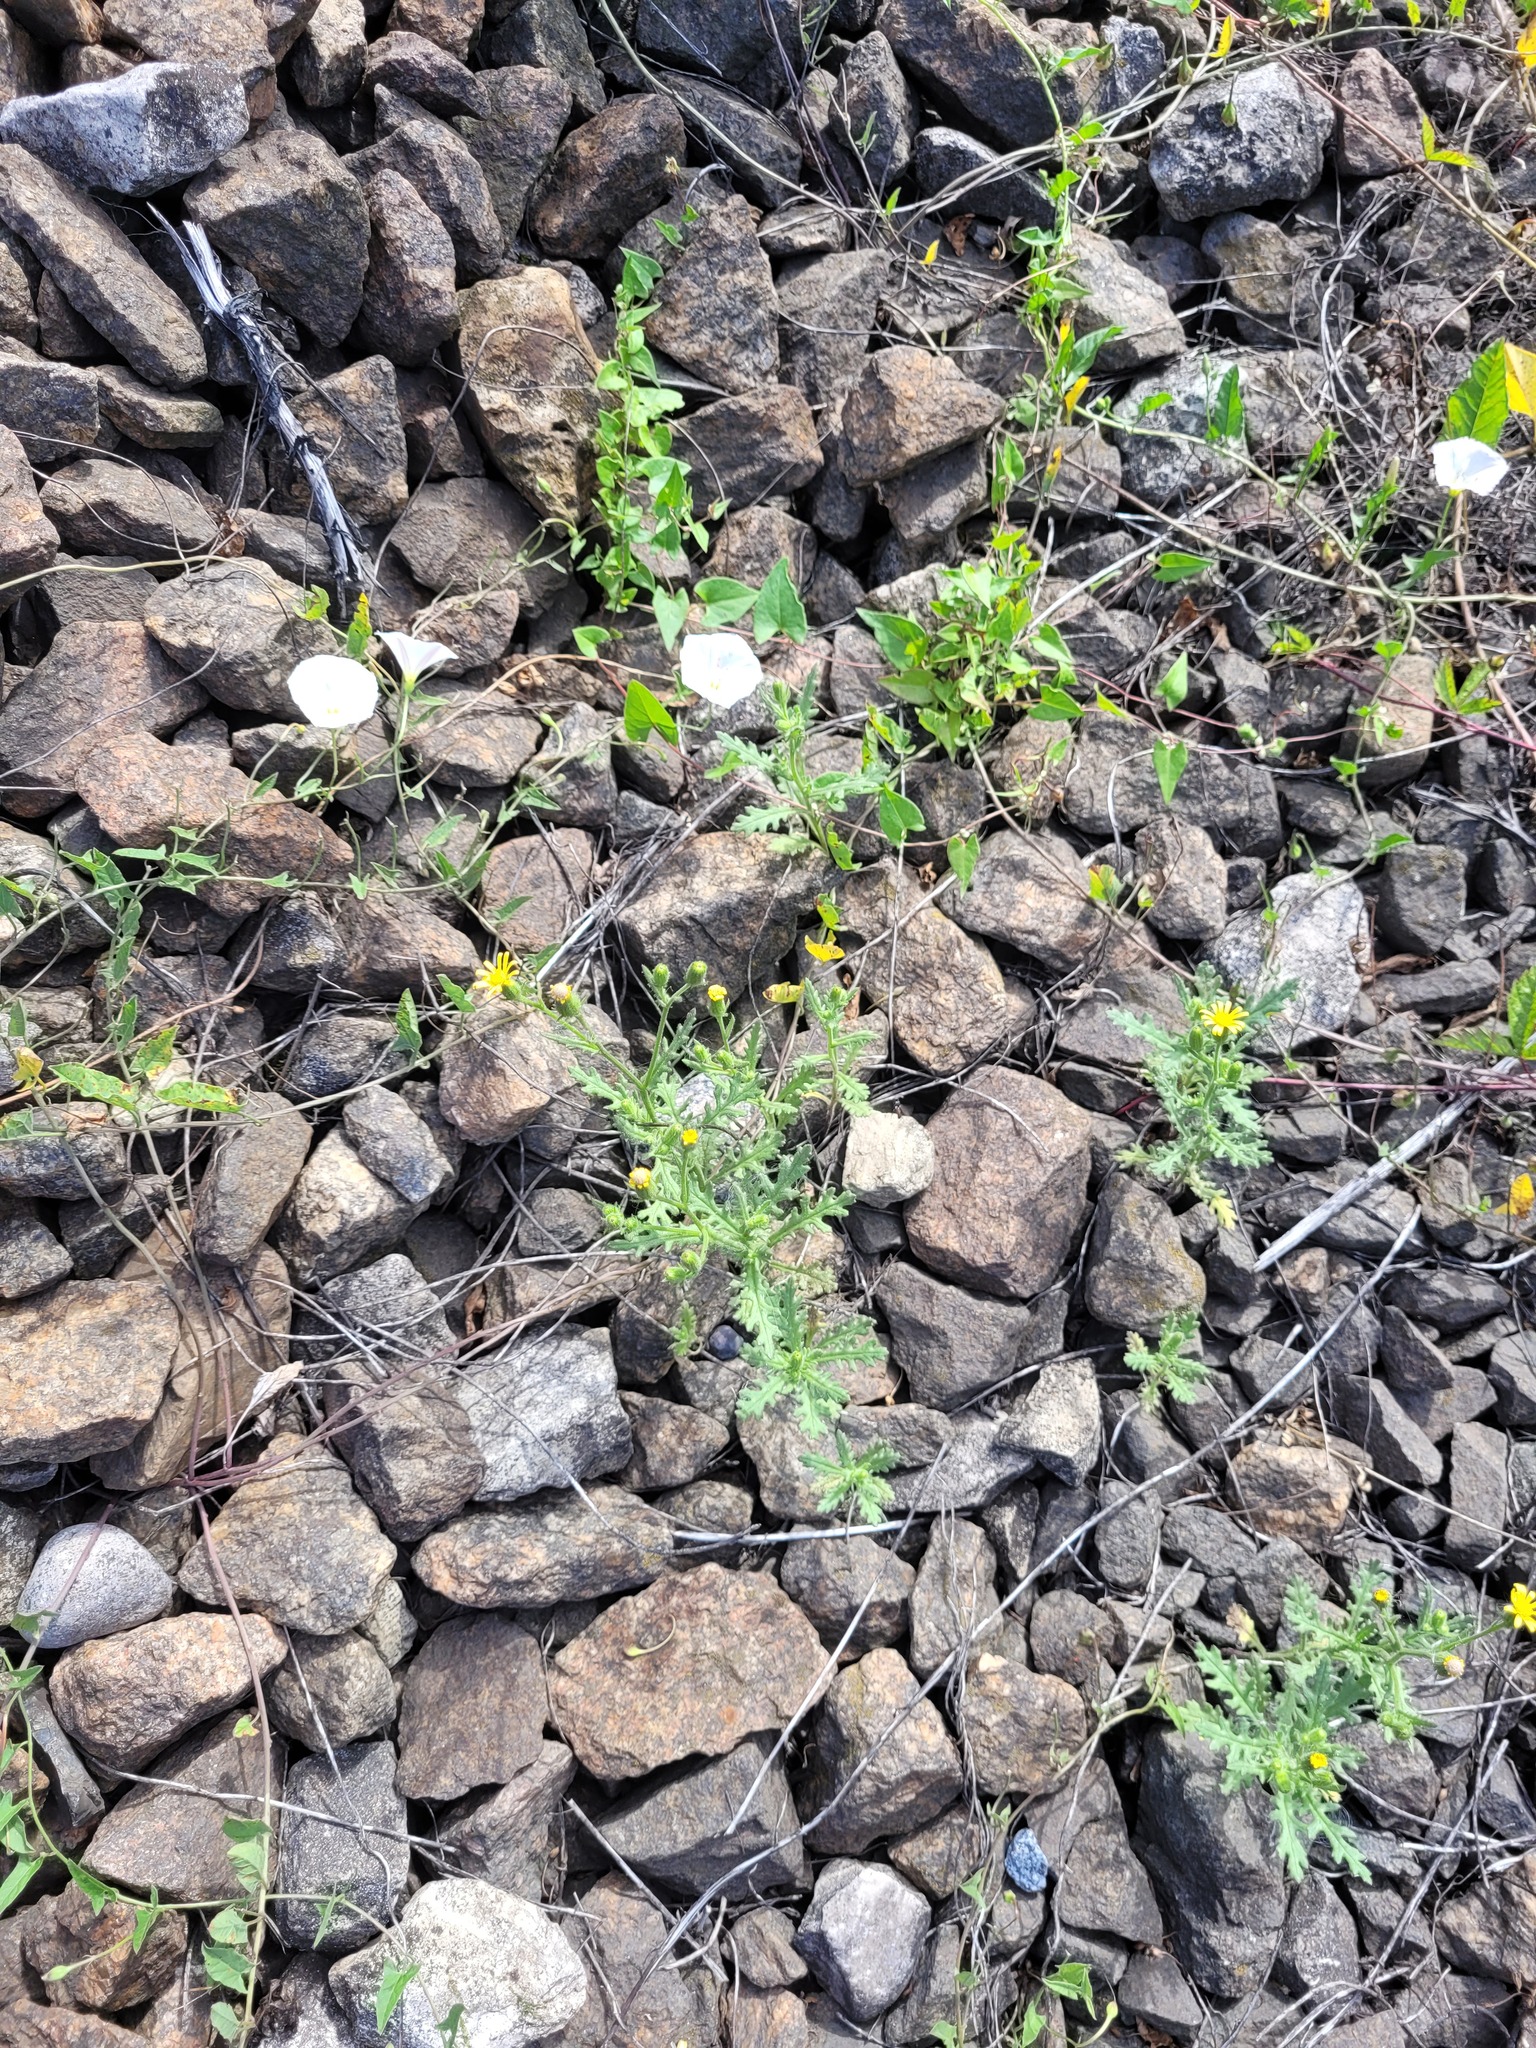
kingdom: Plantae
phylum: Tracheophyta
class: Magnoliopsida
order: Asterales
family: Asteraceae
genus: Senecio
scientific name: Senecio viscosus
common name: Sticky groundsel
